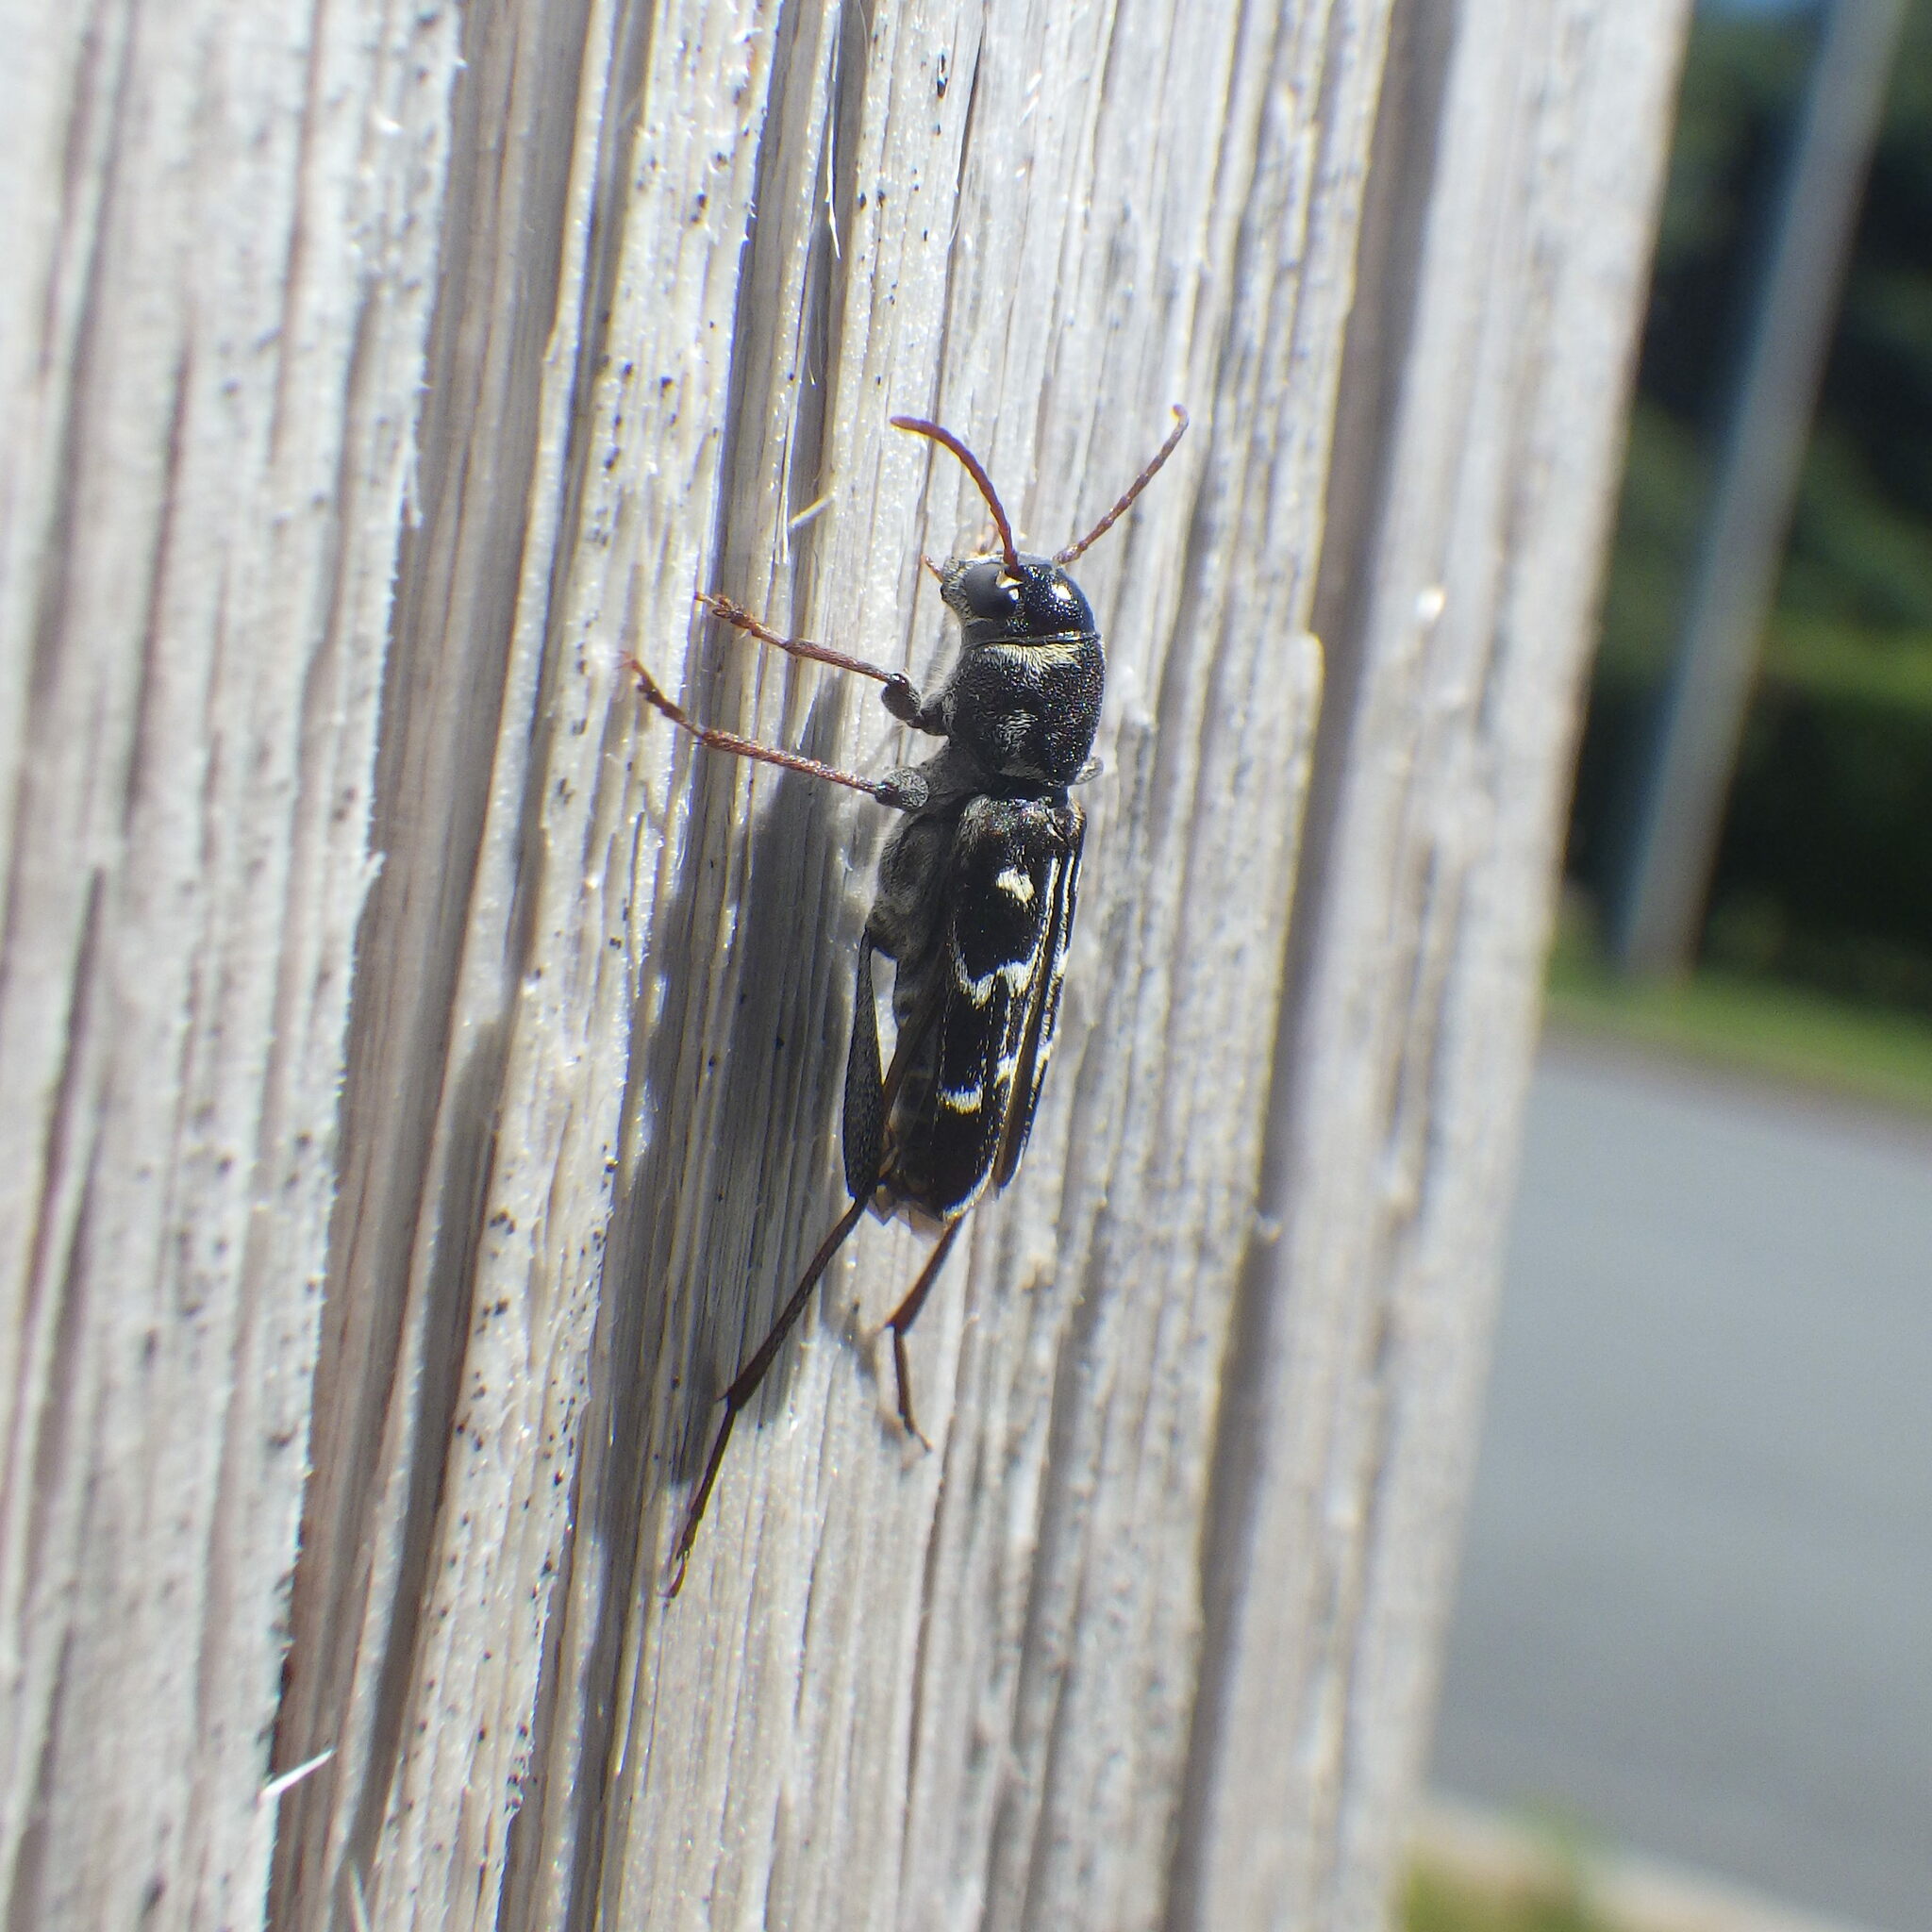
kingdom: Animalia
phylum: Arthropoda
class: Insecta
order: Coleoptera
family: Cerambycidae
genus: Xylotrechus
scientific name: Xylotrechus integer
